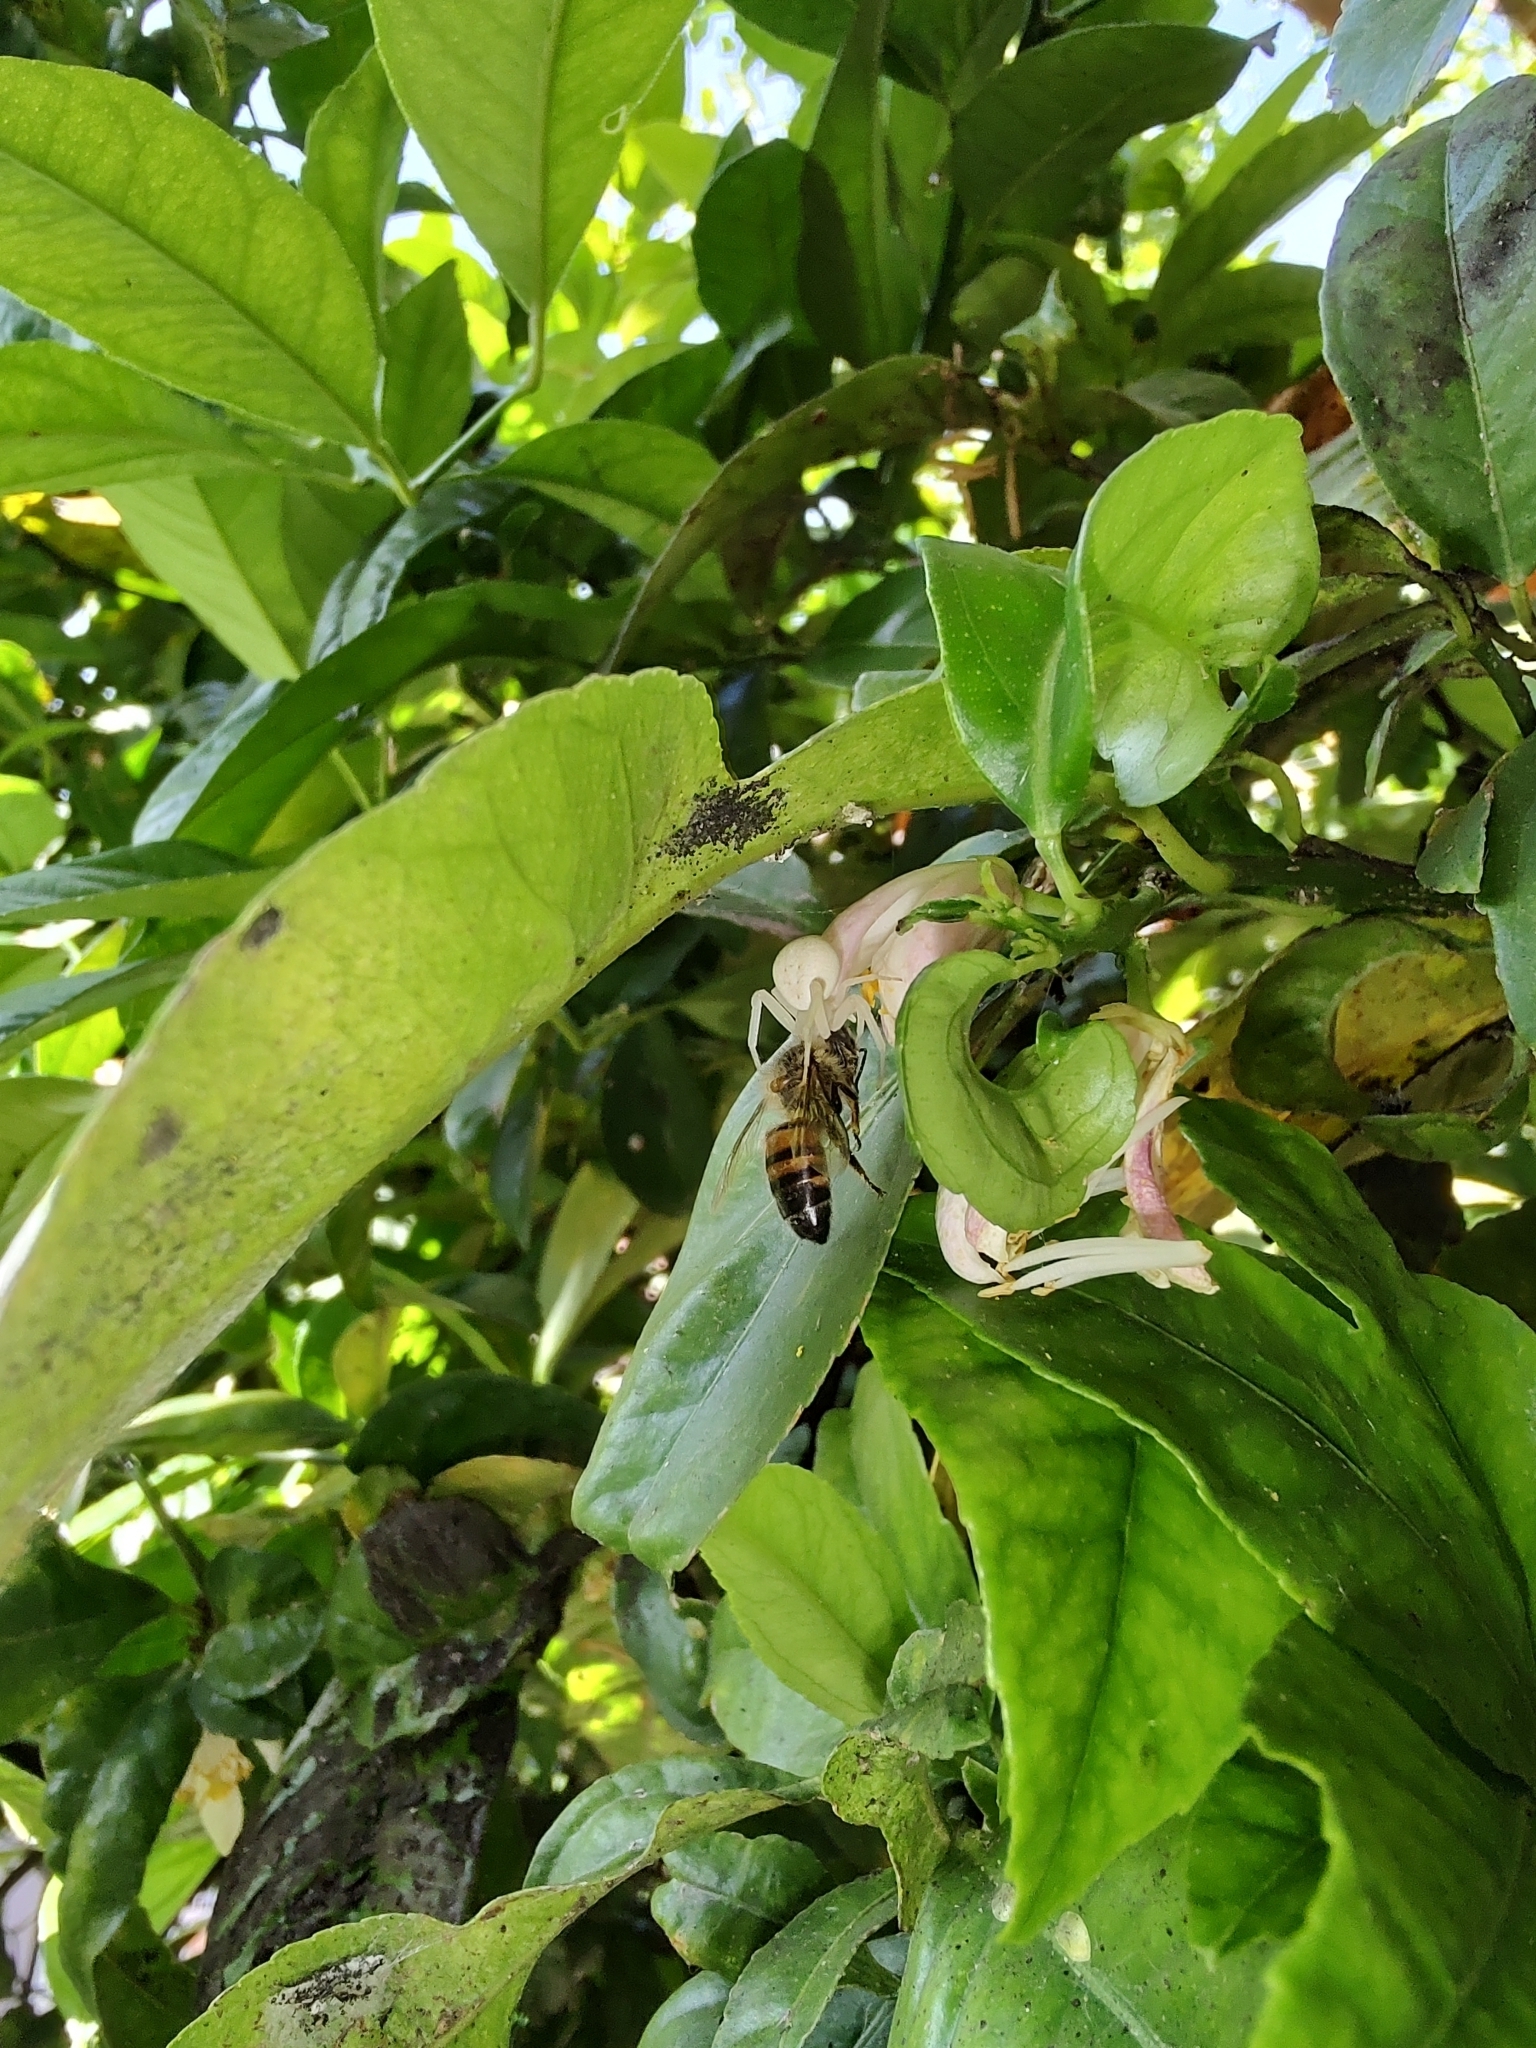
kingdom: Animalia
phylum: Arthropoda
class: Insecta
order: Hymenoptera
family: Apidae
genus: Apis
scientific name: Apis mellifera
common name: Honey bee
